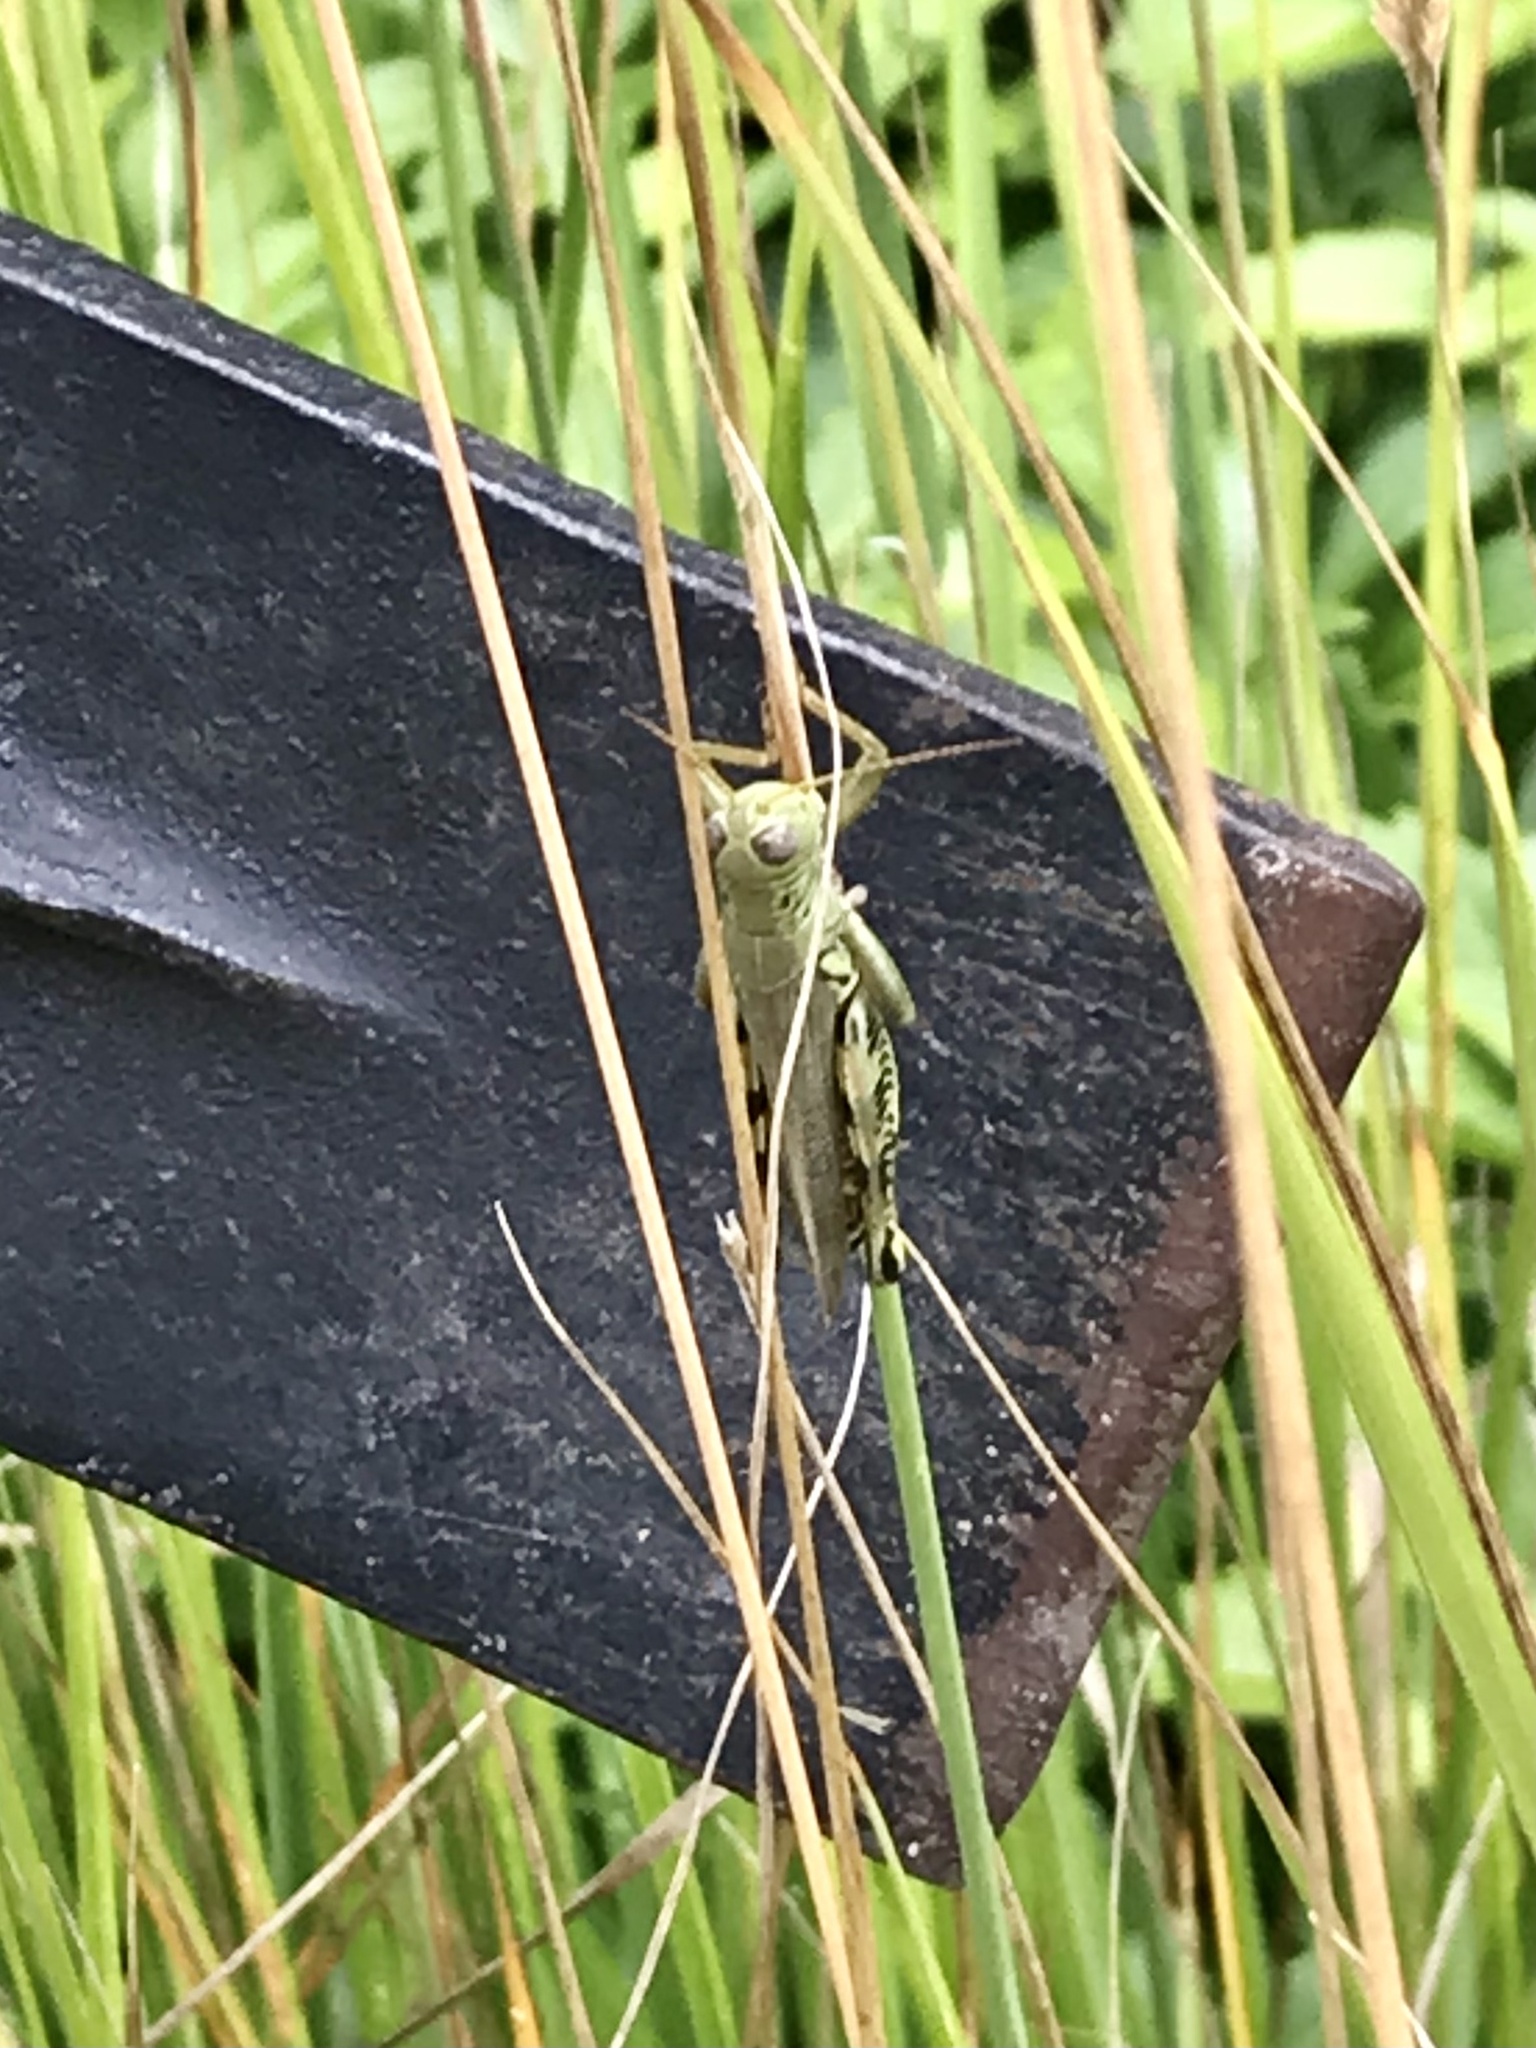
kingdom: Animalia
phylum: Arthropoda
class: Insecta
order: Orthoptera
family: Acrididae
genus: Melanoplus
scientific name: Melanoplus differentialis
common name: Differential grasshopper
